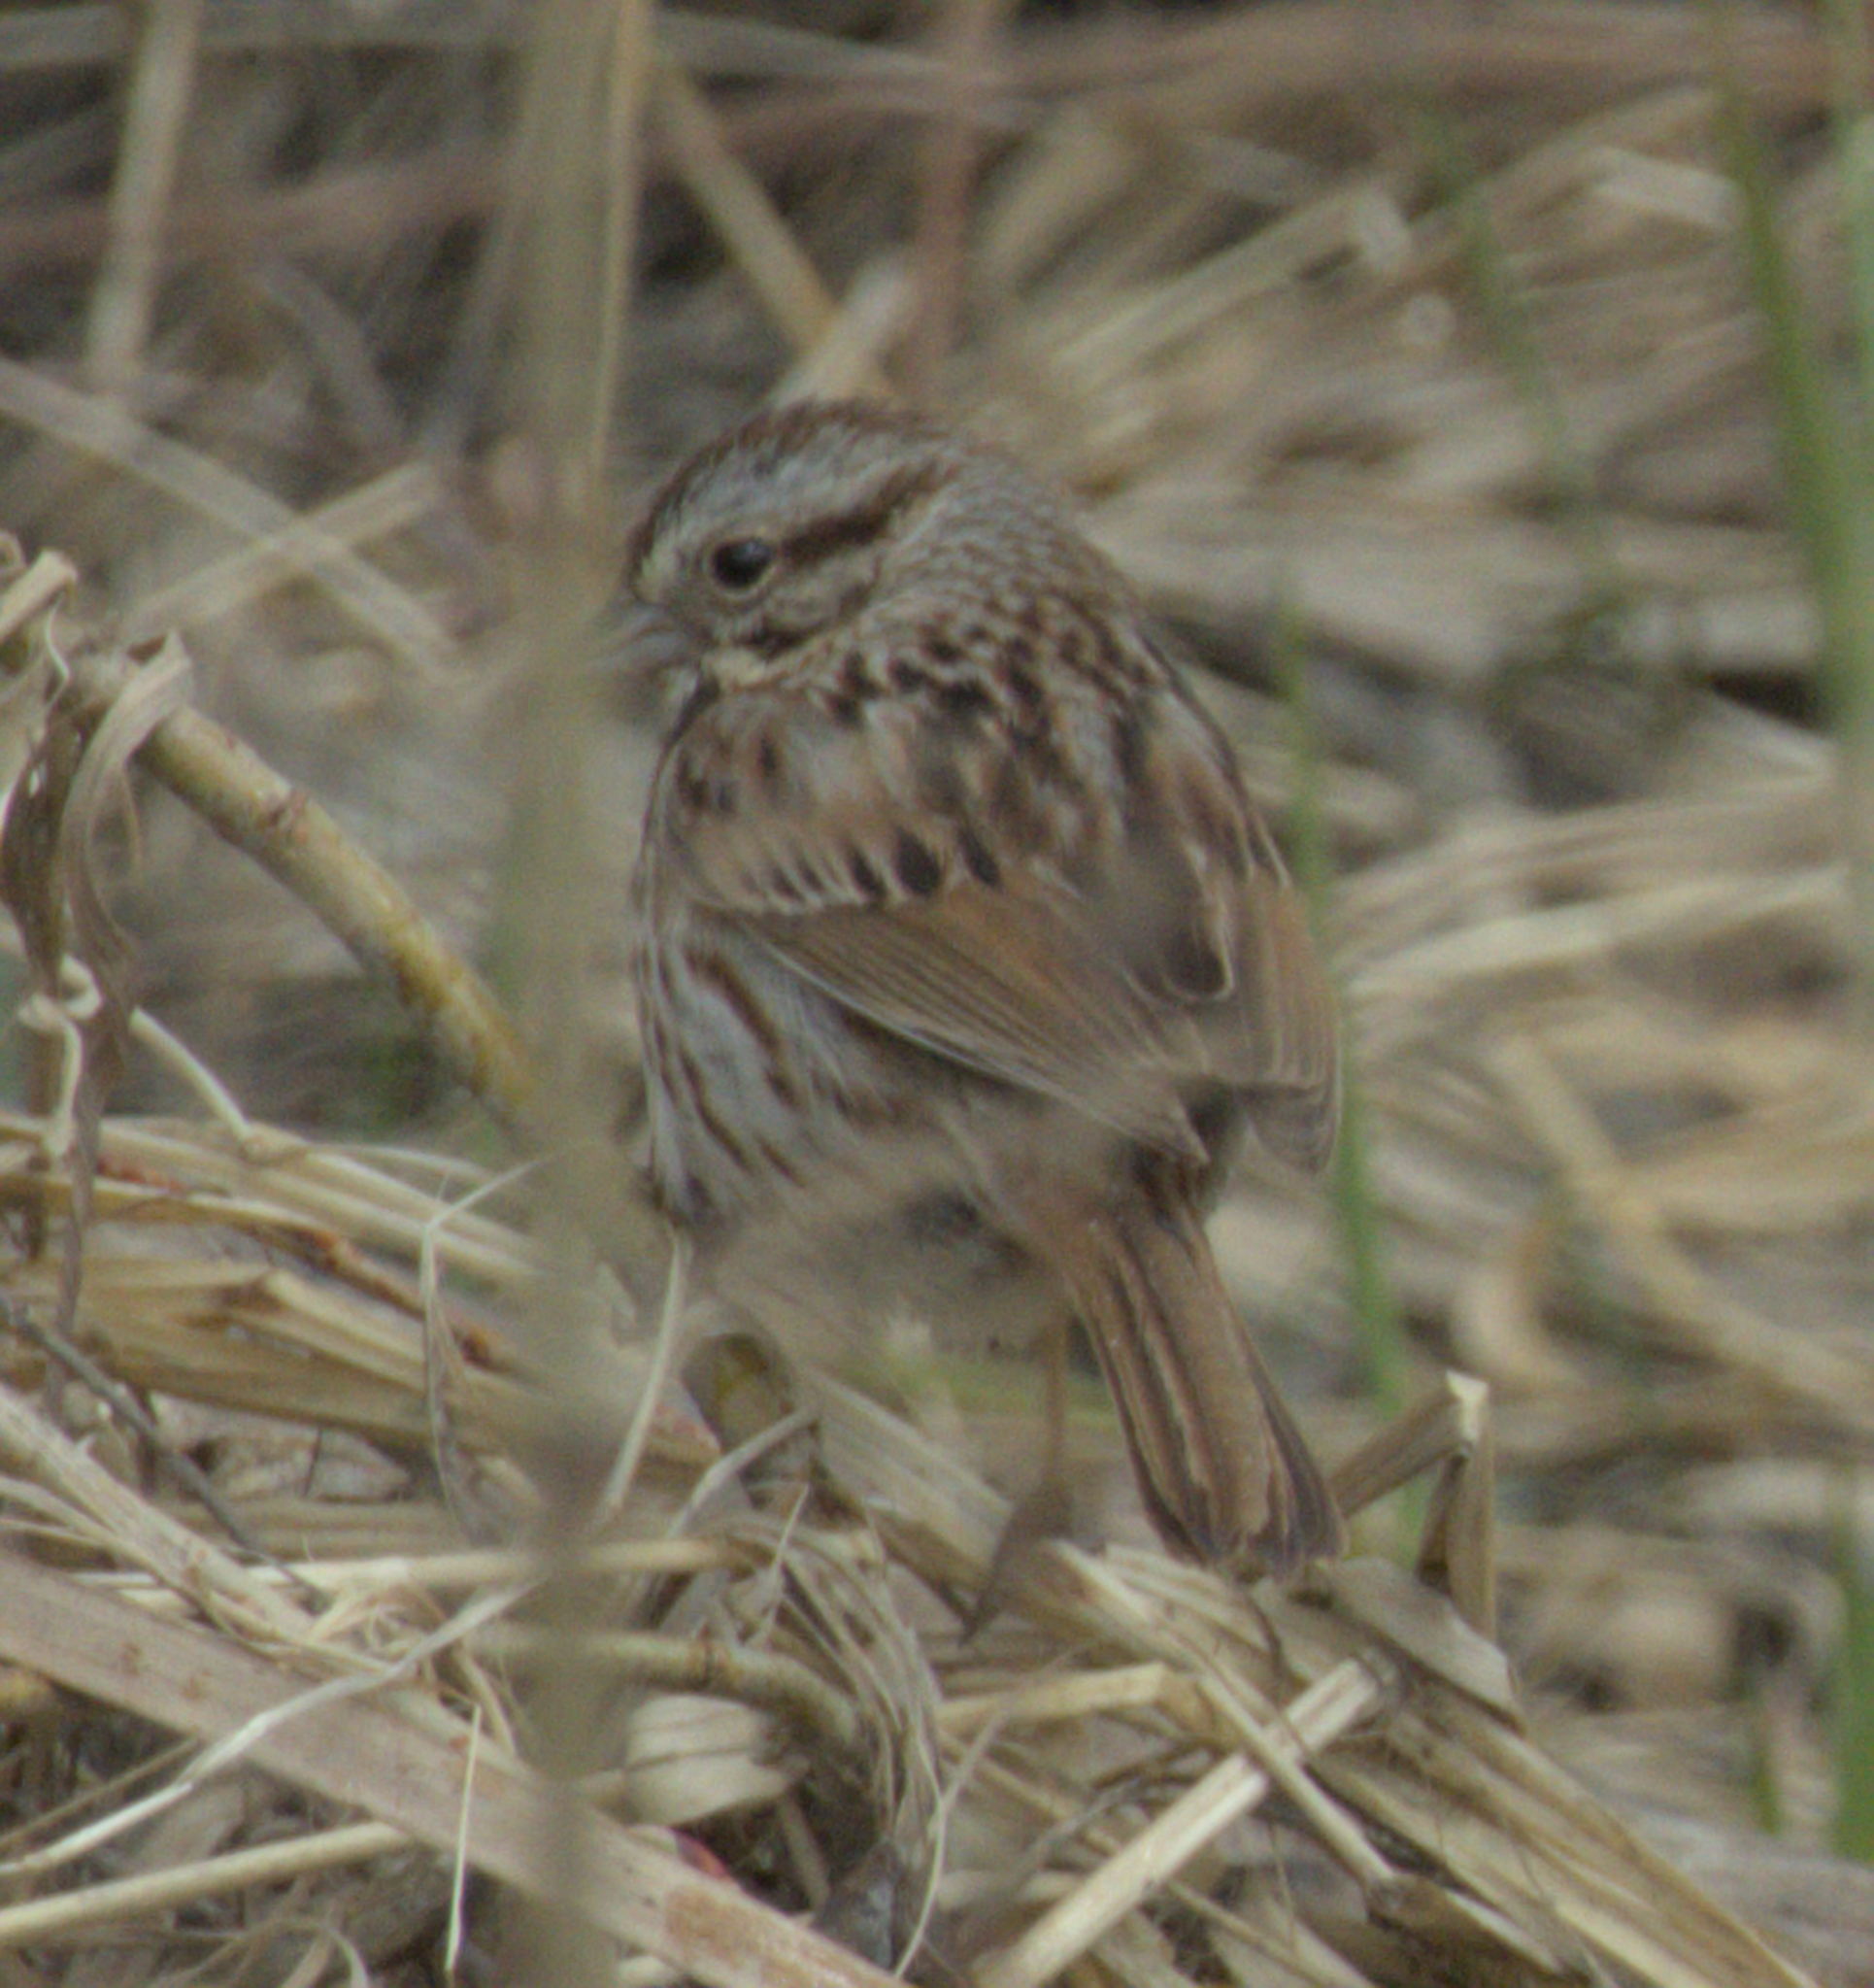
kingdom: Animalia
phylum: Chordata
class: Aves
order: Passeriformes
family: Passerellidae
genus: Melospiza
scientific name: Melospiza melodia
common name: Song sparrow
